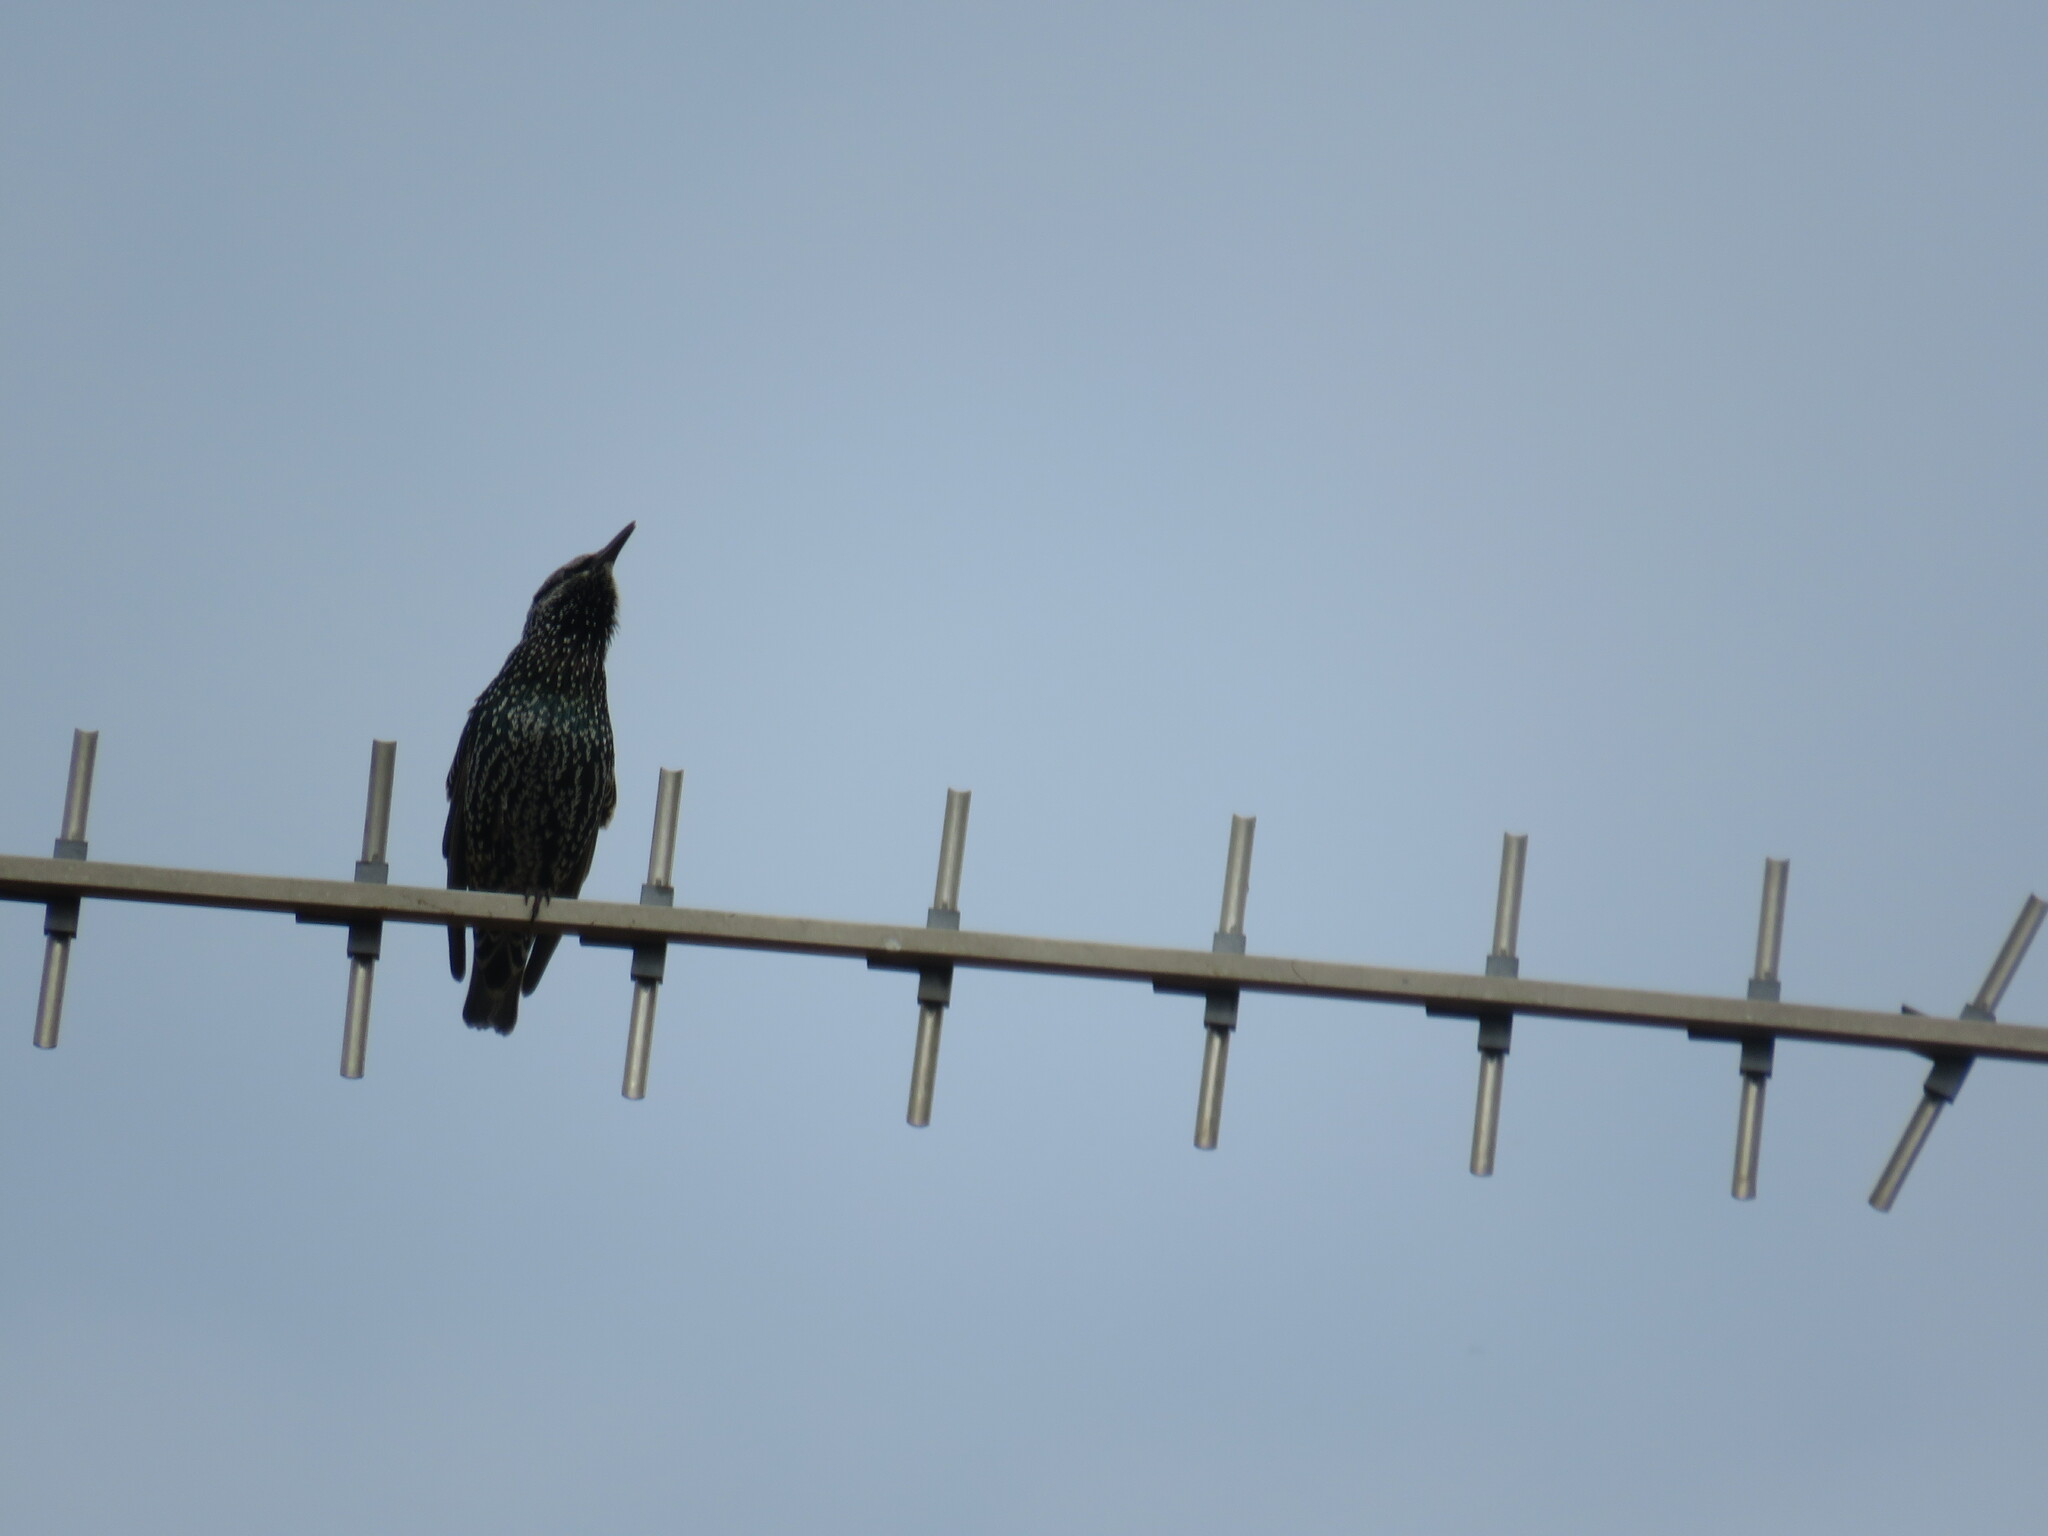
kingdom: Animalia
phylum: Chordata
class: Aves
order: Passeriformes
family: Sturnidae
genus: Sturnus
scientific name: Sturnus vulgaris
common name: Common starling
